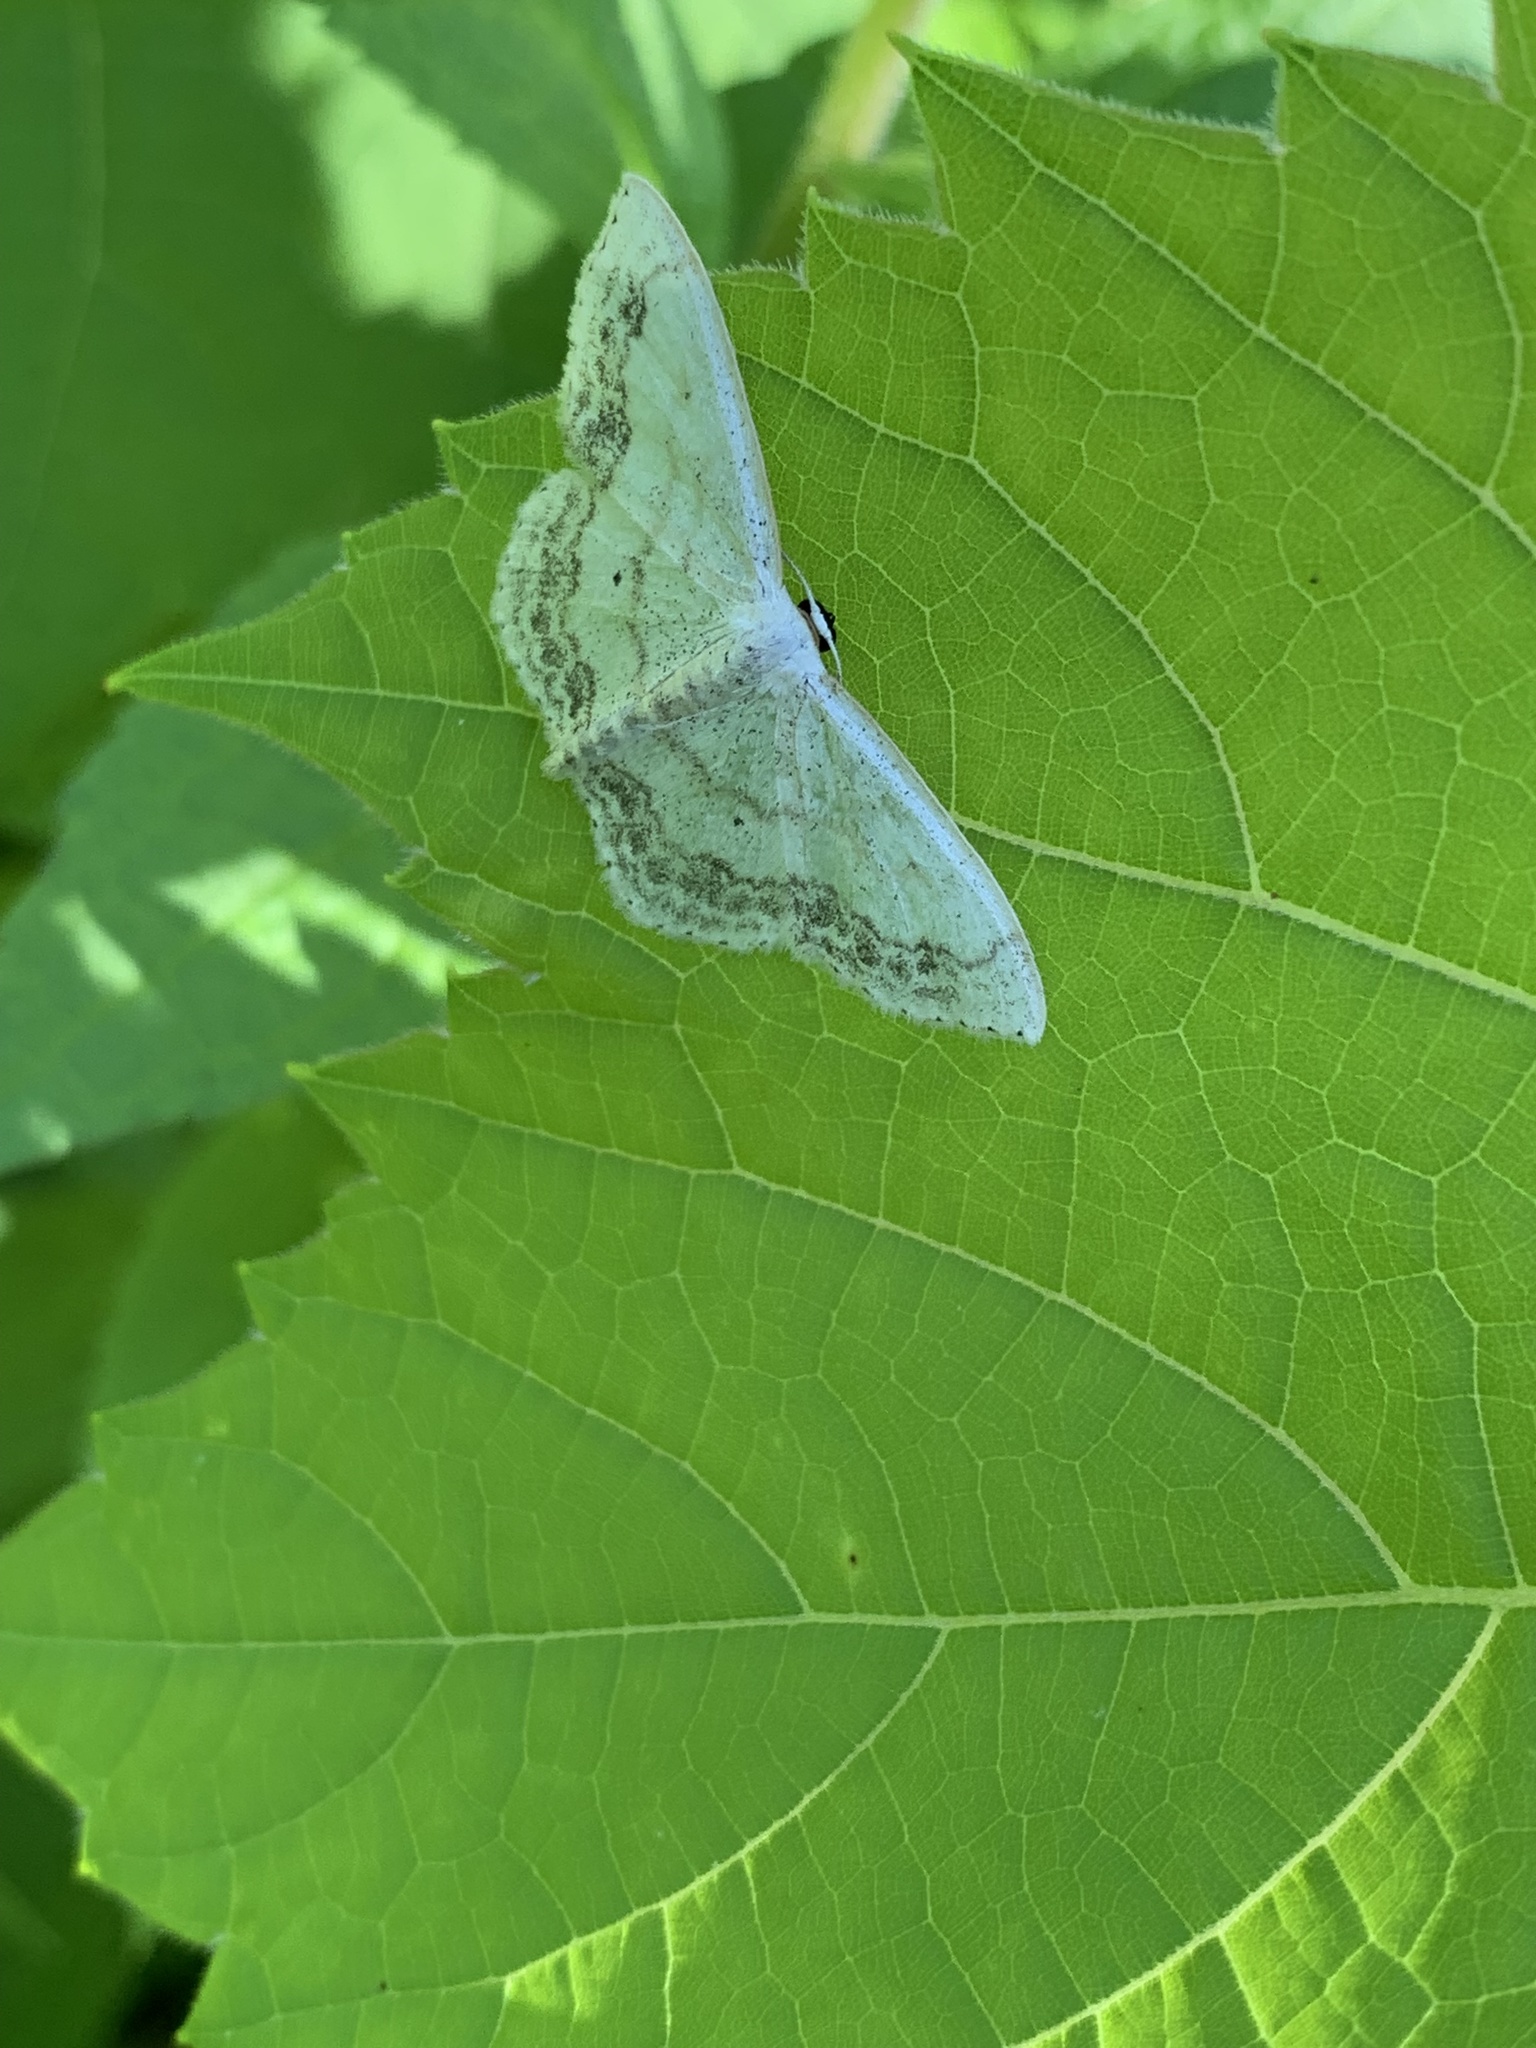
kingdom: Animalia
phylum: Arthropoda
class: Insecta
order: Lepidoptera
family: Geometridae
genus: Scopula
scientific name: Scopula limboundata
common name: Large lace border
